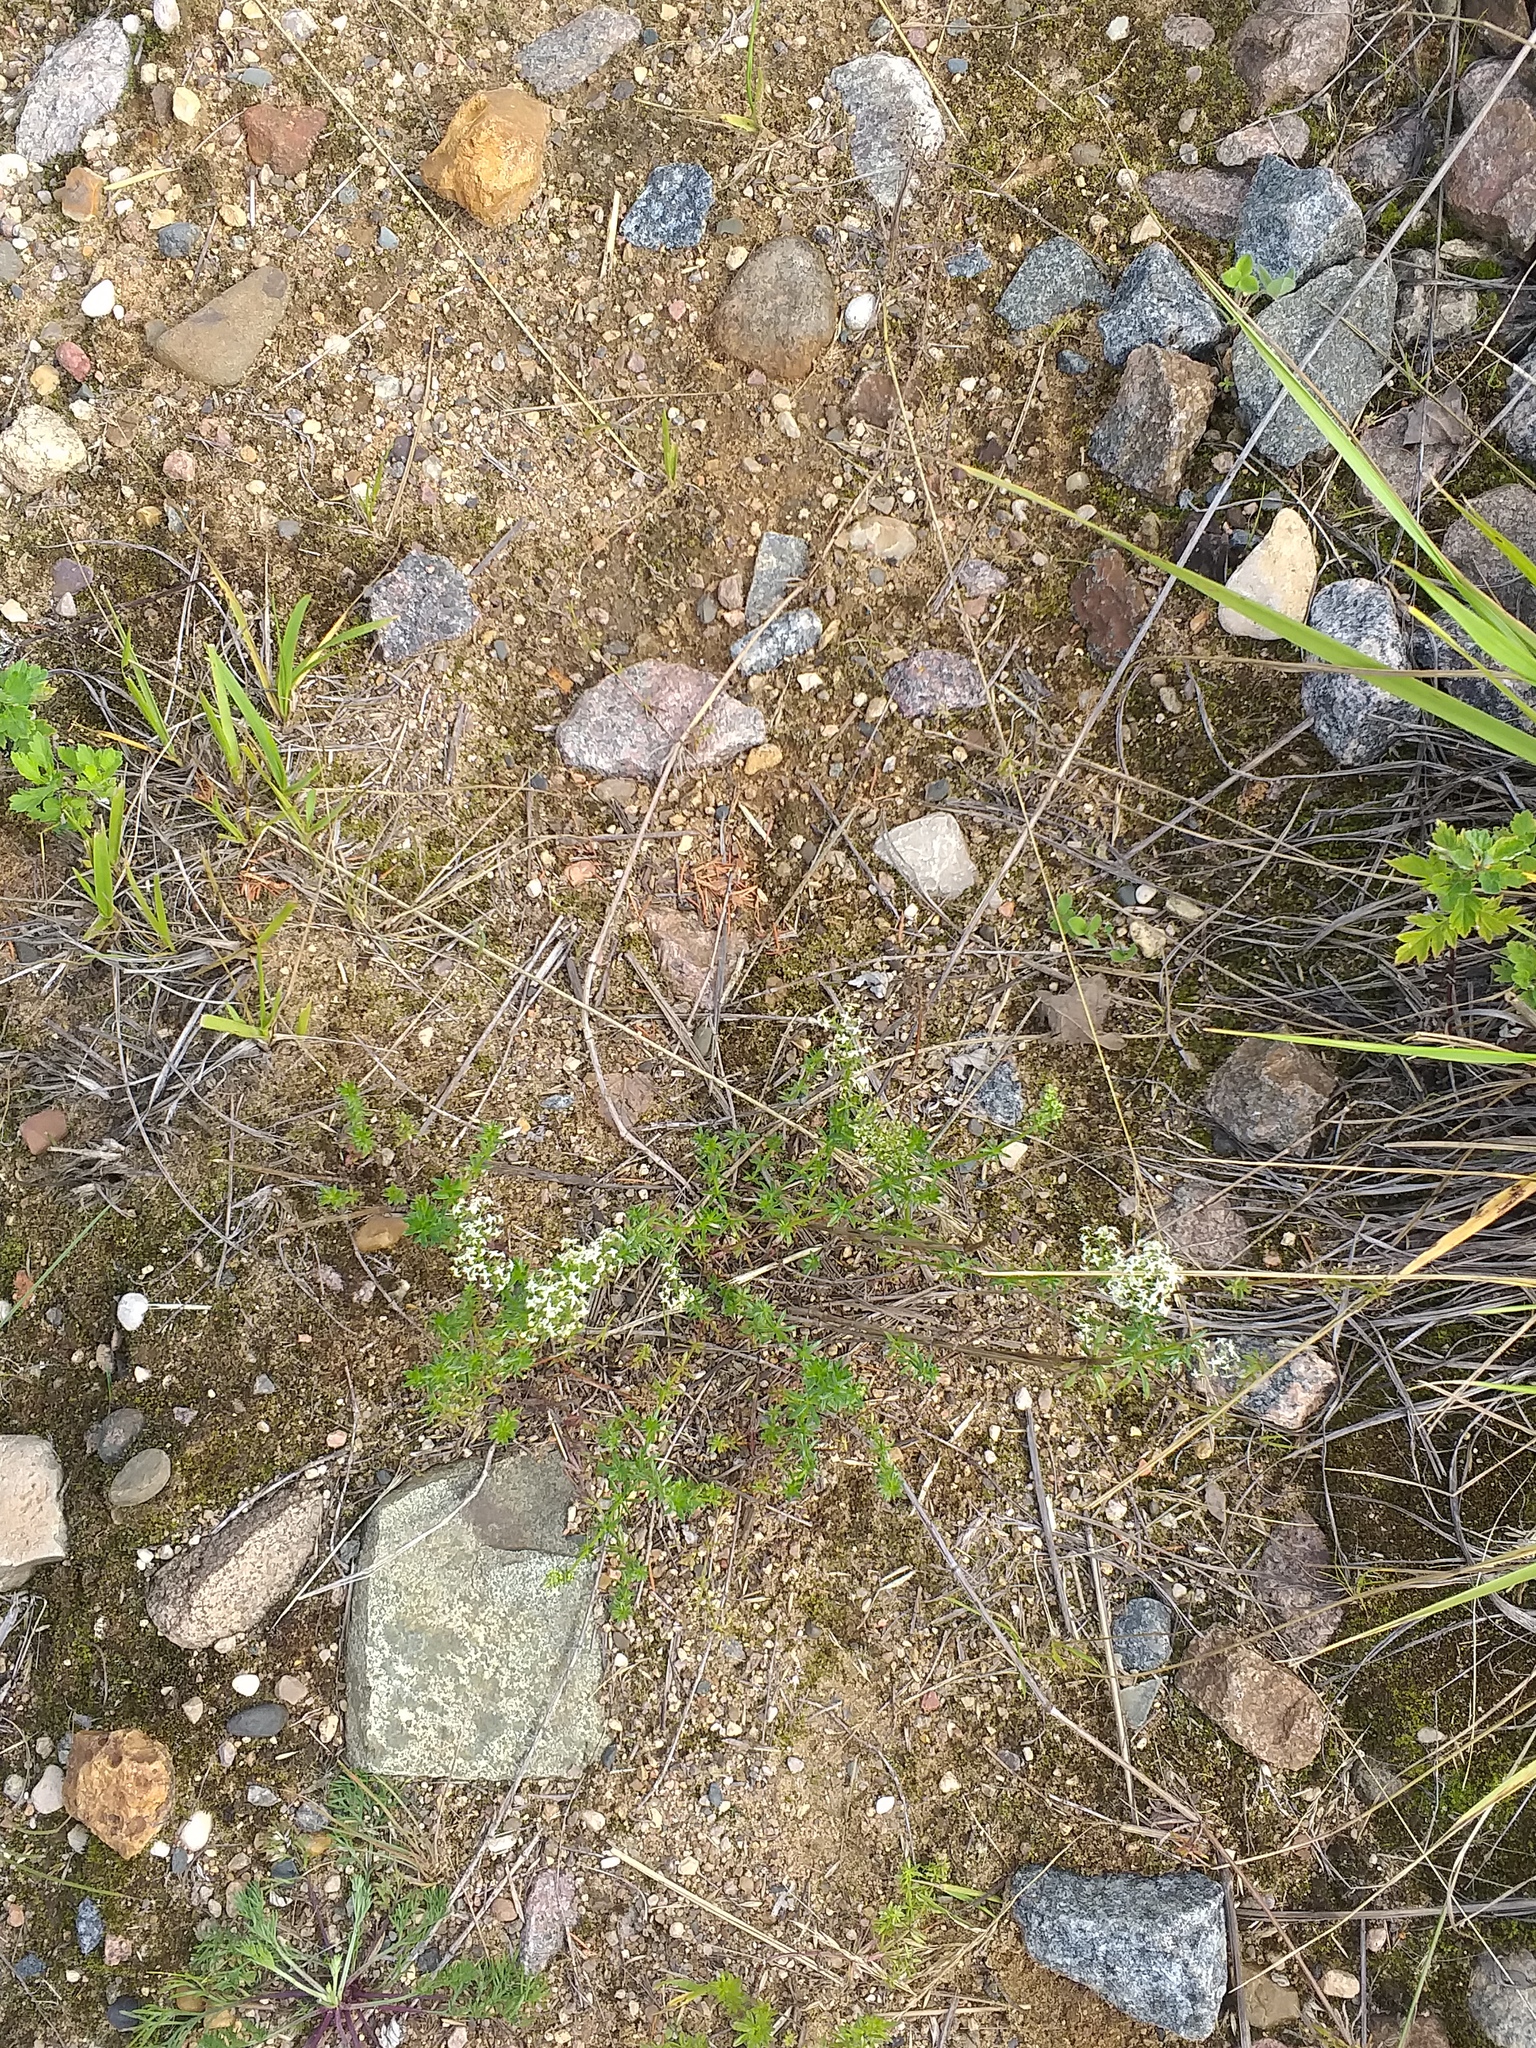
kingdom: Plantae
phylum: Tracheophyta
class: Magnoliopsida
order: Gentianales
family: Rubiaceae
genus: Galium
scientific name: Galium mollugo
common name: Hedge bedstraw
